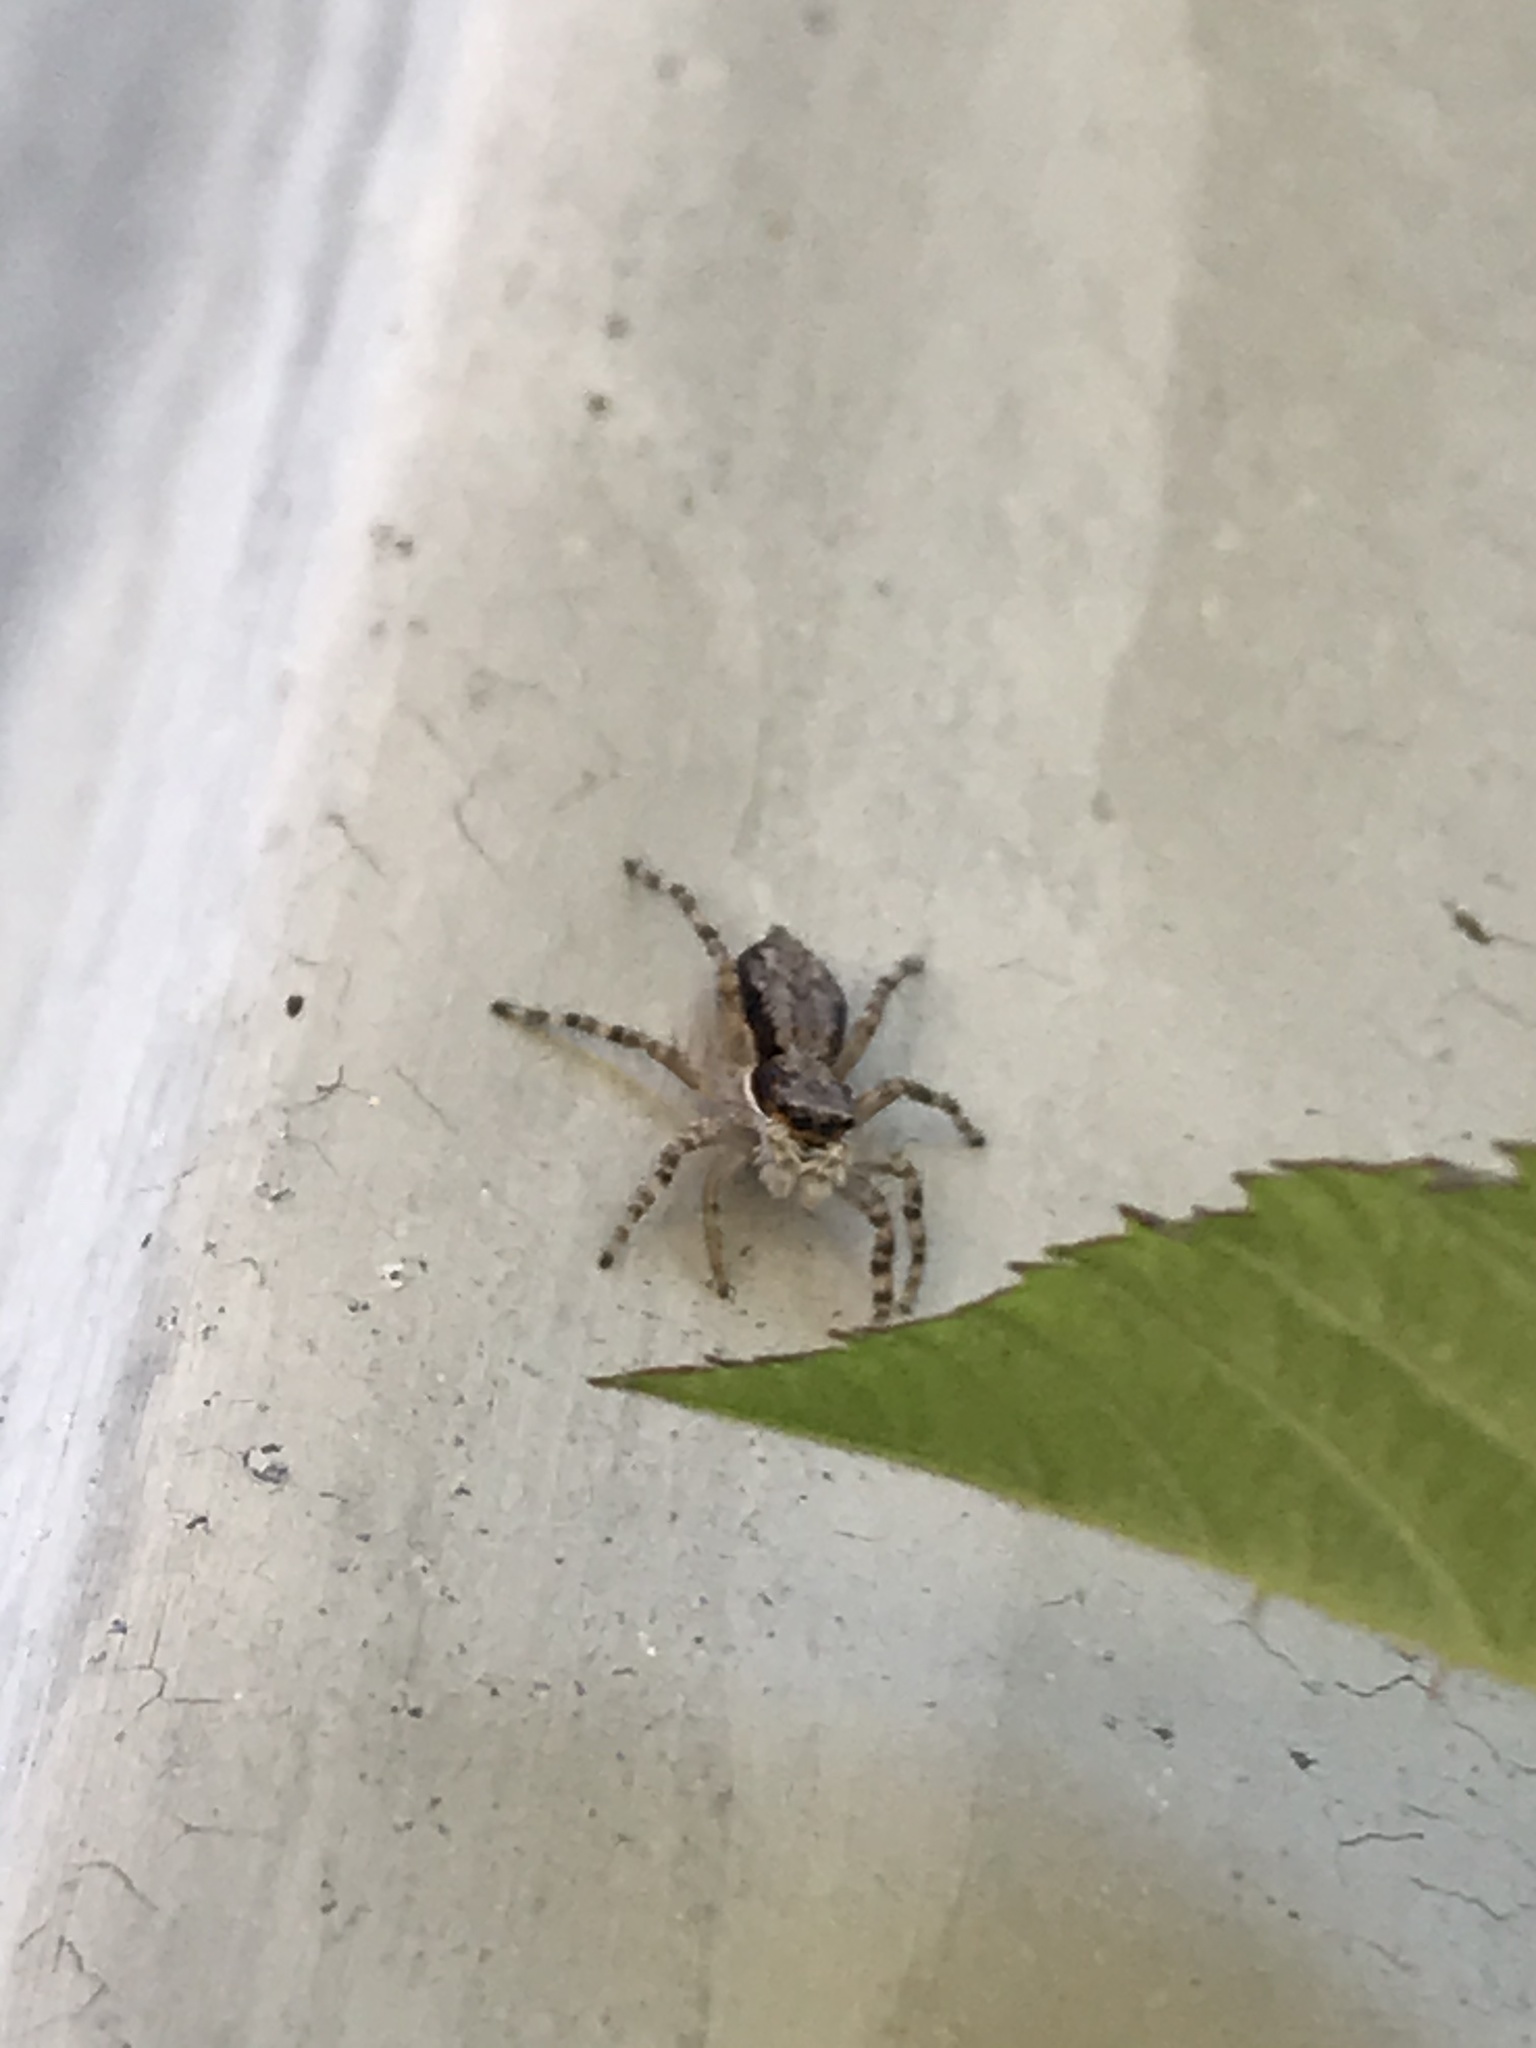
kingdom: Animalia
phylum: Arthropoda
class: Arachnida
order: Araneae
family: Salticidae
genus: Menemerus
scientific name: Menemerus bivittatus
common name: Gray wall jumper
